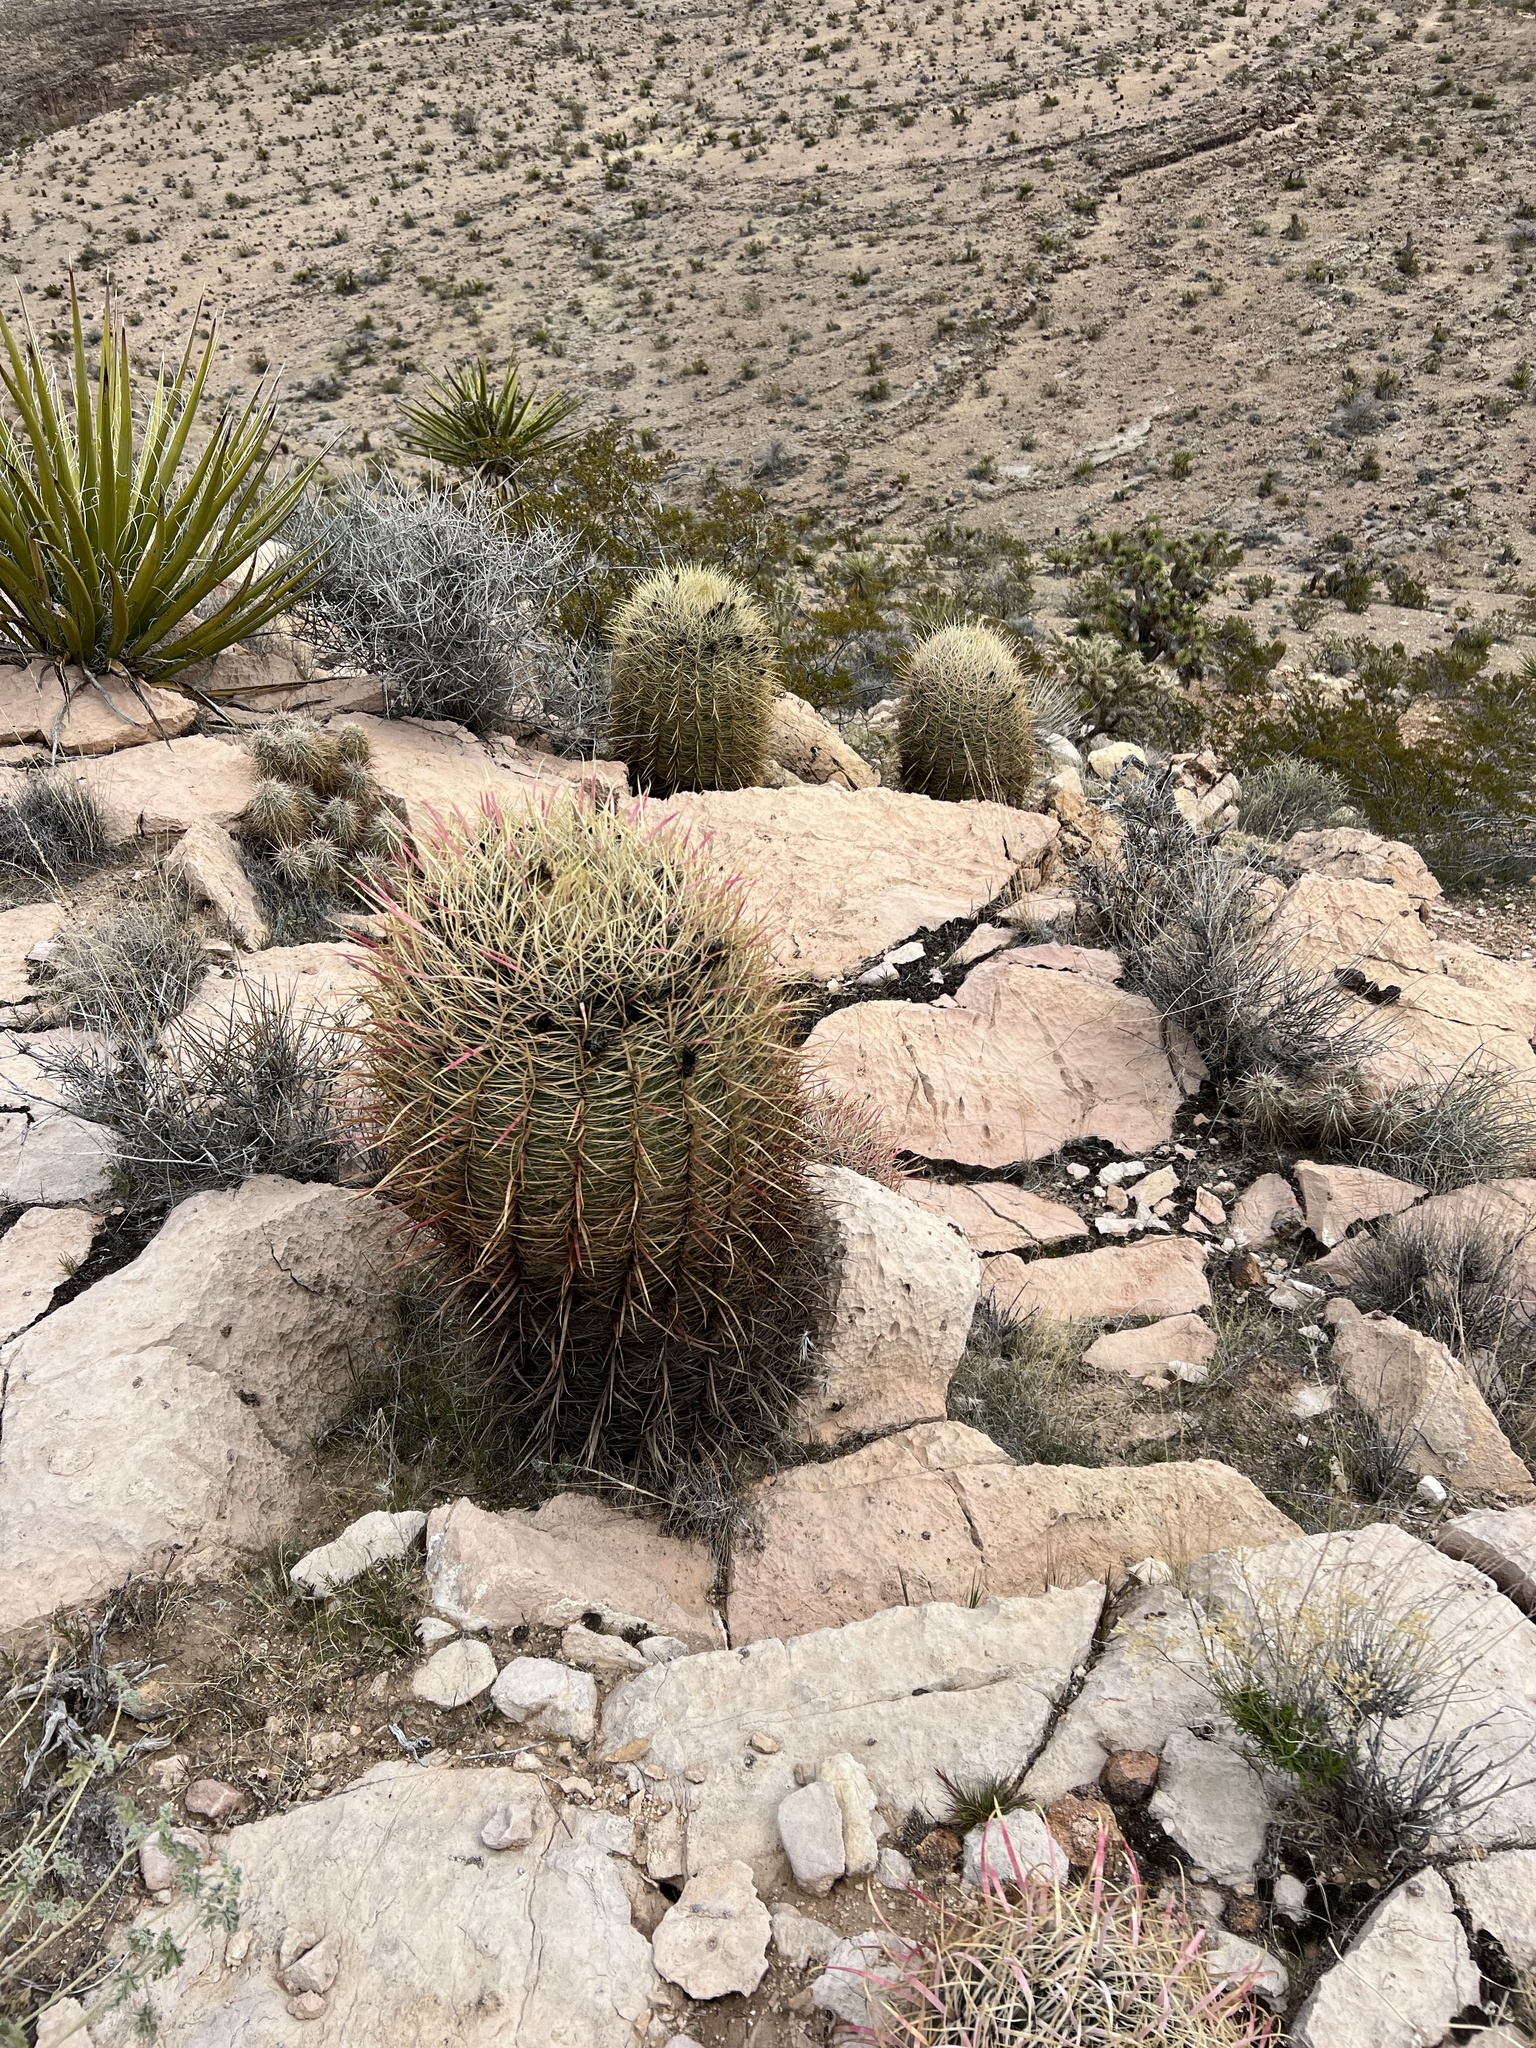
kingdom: Plantae
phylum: Tracheophyta
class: Magnoliopsida
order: Caryophyllales
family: Cactaceae
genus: Ferocactus
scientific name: Ferocactus cylindraceus
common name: California barrel cactus
